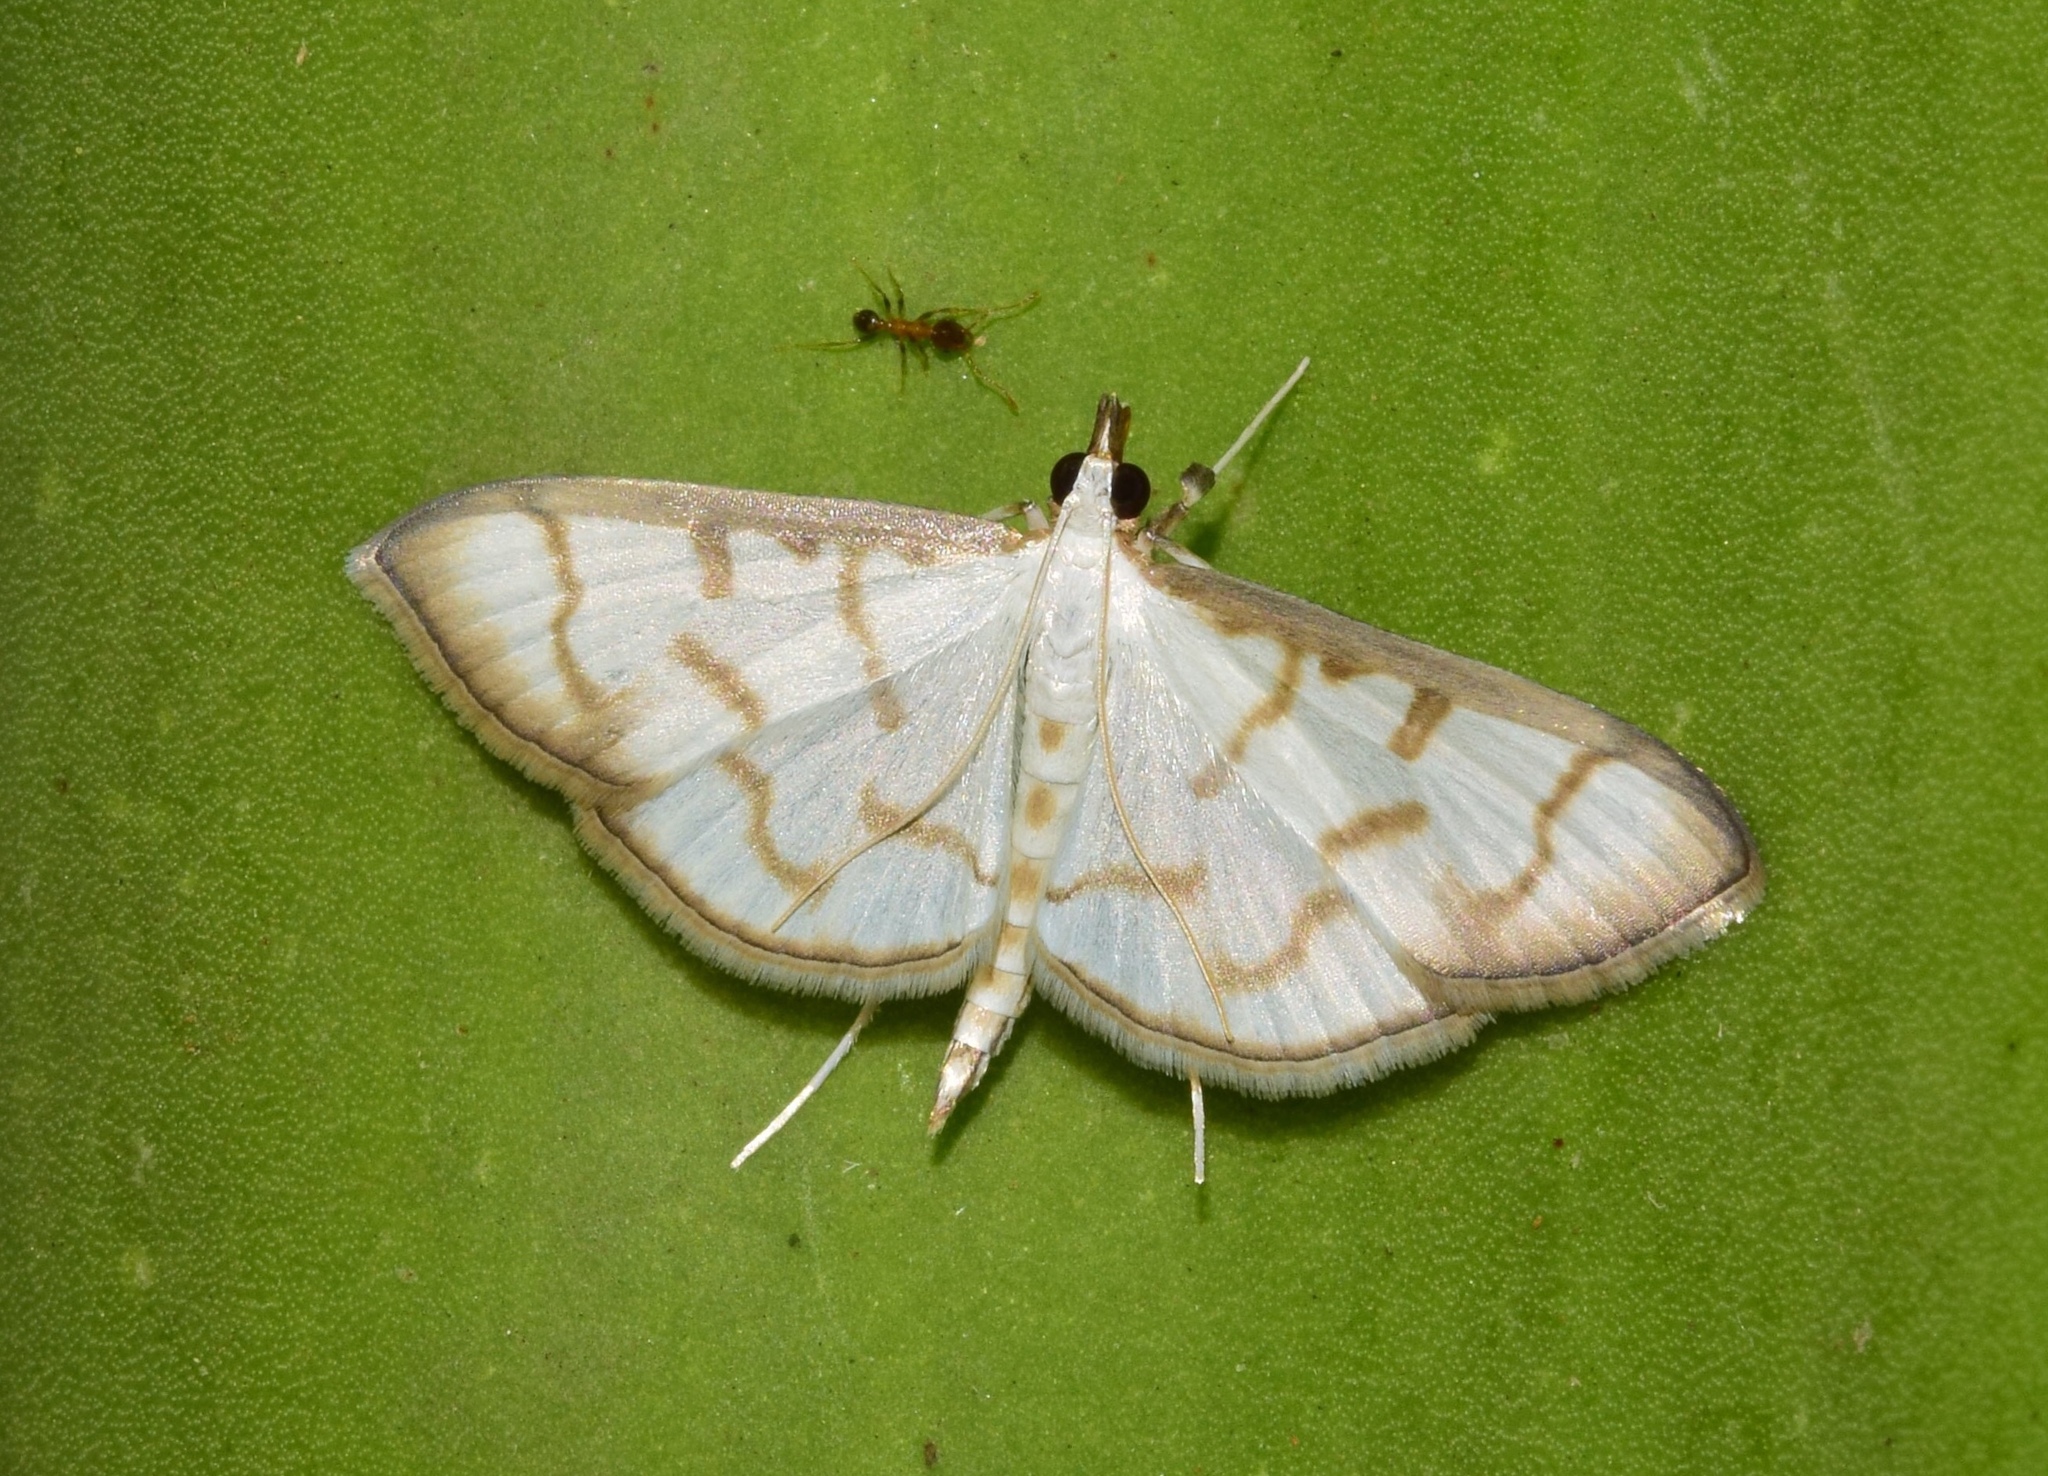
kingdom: Animalia
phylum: Arthropoda
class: Insecta
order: Lepidoptera
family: Crambidae
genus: Antigastra
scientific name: Antigastra morysalis
